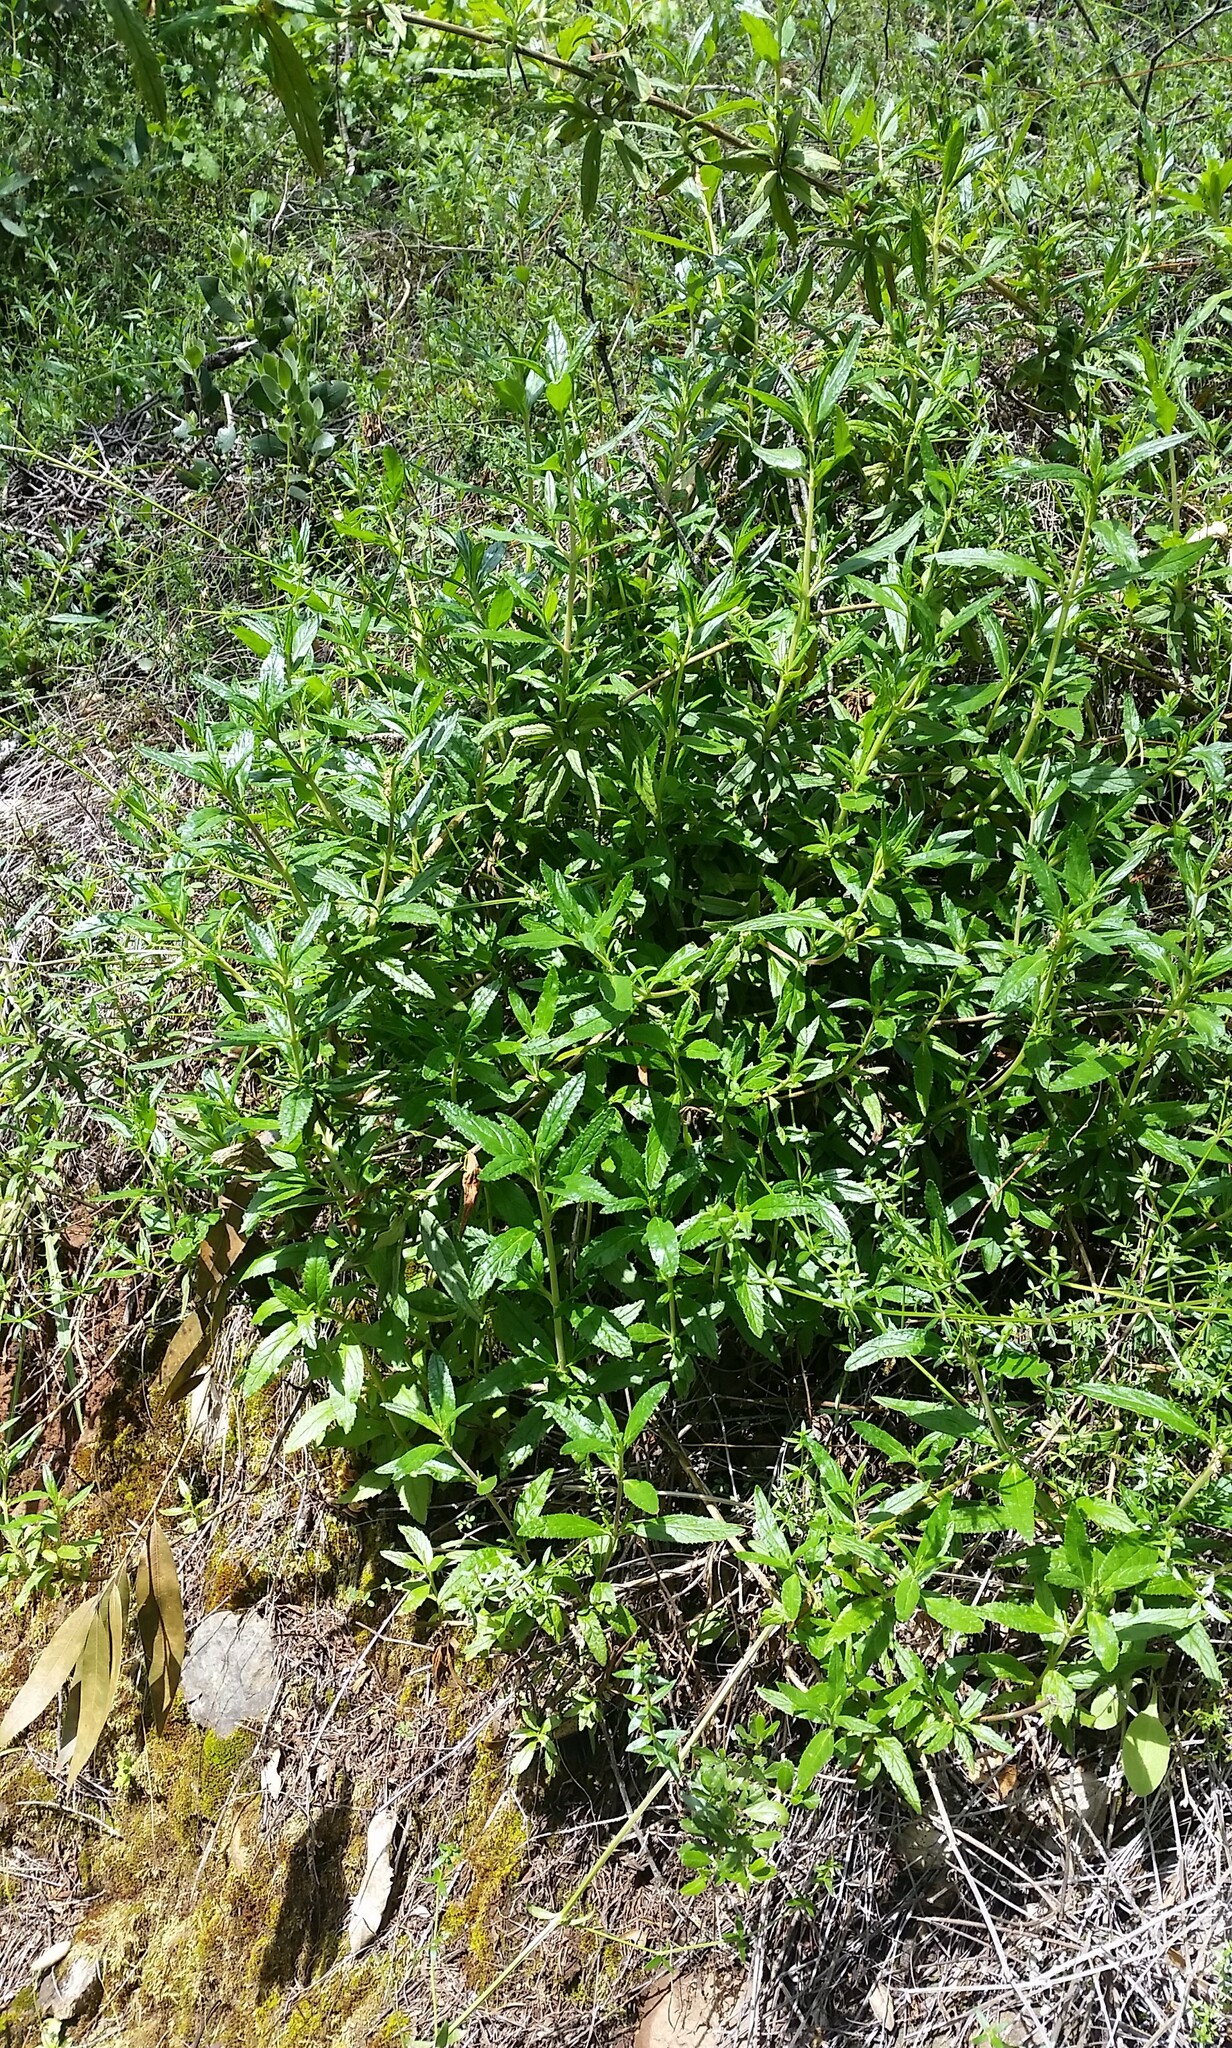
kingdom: Plantae
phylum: Tracheophyta
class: Magnoliopsida
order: Lamiales
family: Phrymaceae
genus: Diplacus
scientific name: Diplacus aurantiacus
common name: Bush monkey-flower
